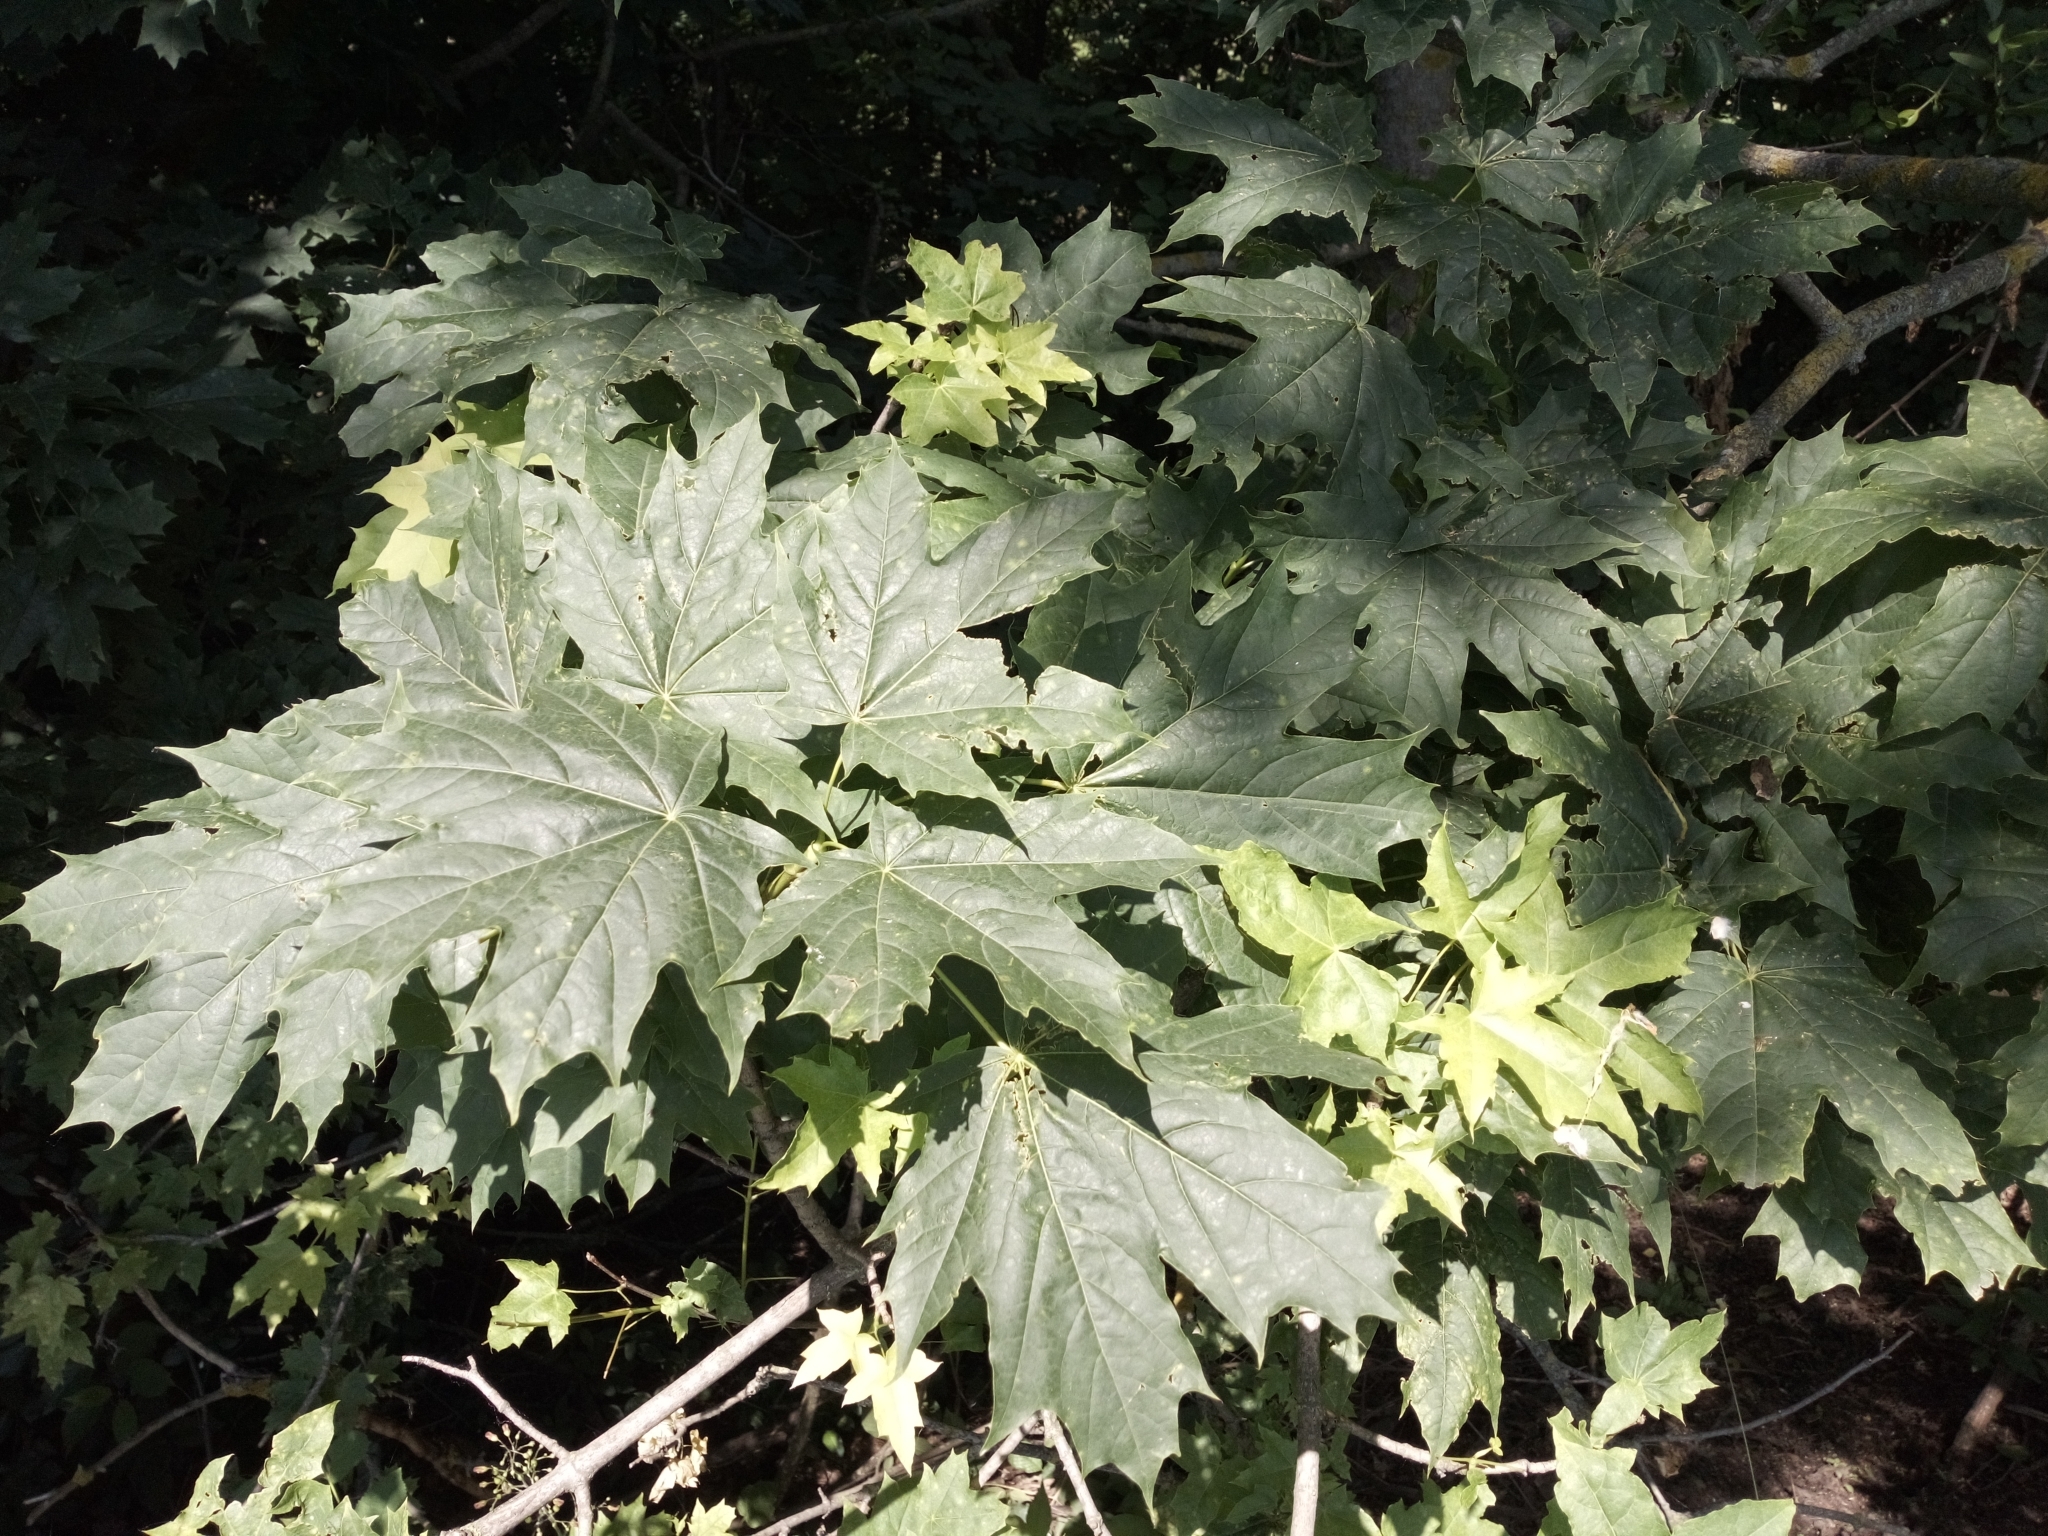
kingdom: Plantae
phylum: Tracheophyta
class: Magnoliopsida
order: Sapindales
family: Sapindaceae
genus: Acer
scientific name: Acer platanoides
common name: Norway maple
